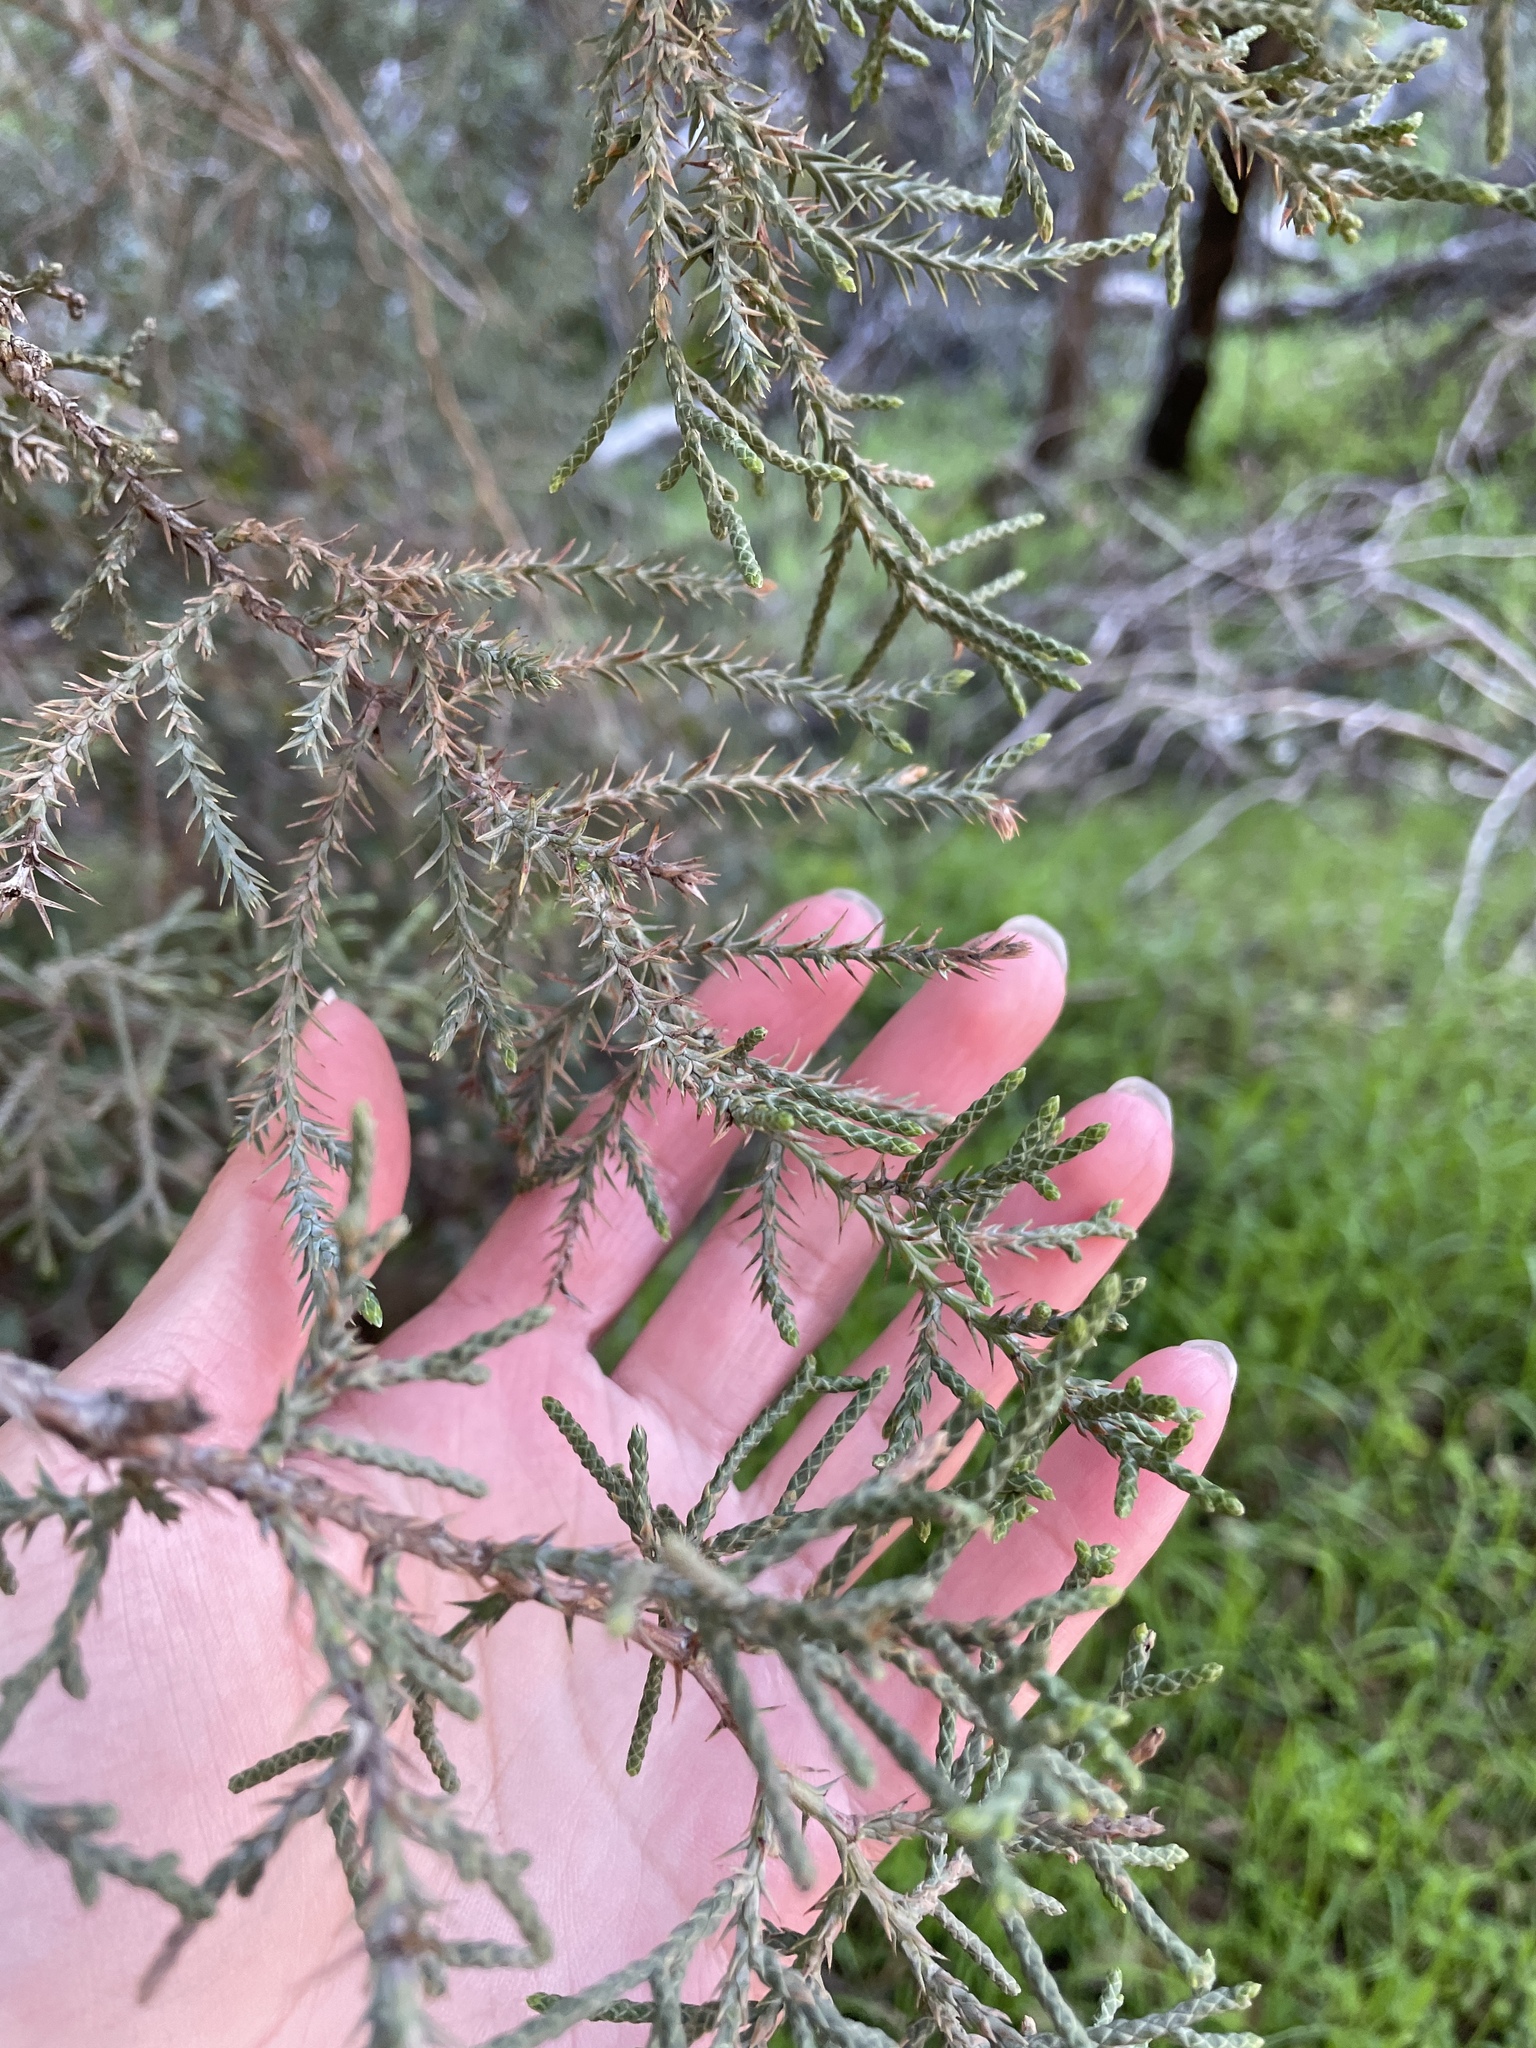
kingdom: Plantae
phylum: Tracheophyta
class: Pinopsida
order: Pinales
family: Cupressaceae
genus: Juniperus
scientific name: Juniperus californica
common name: California juniper
